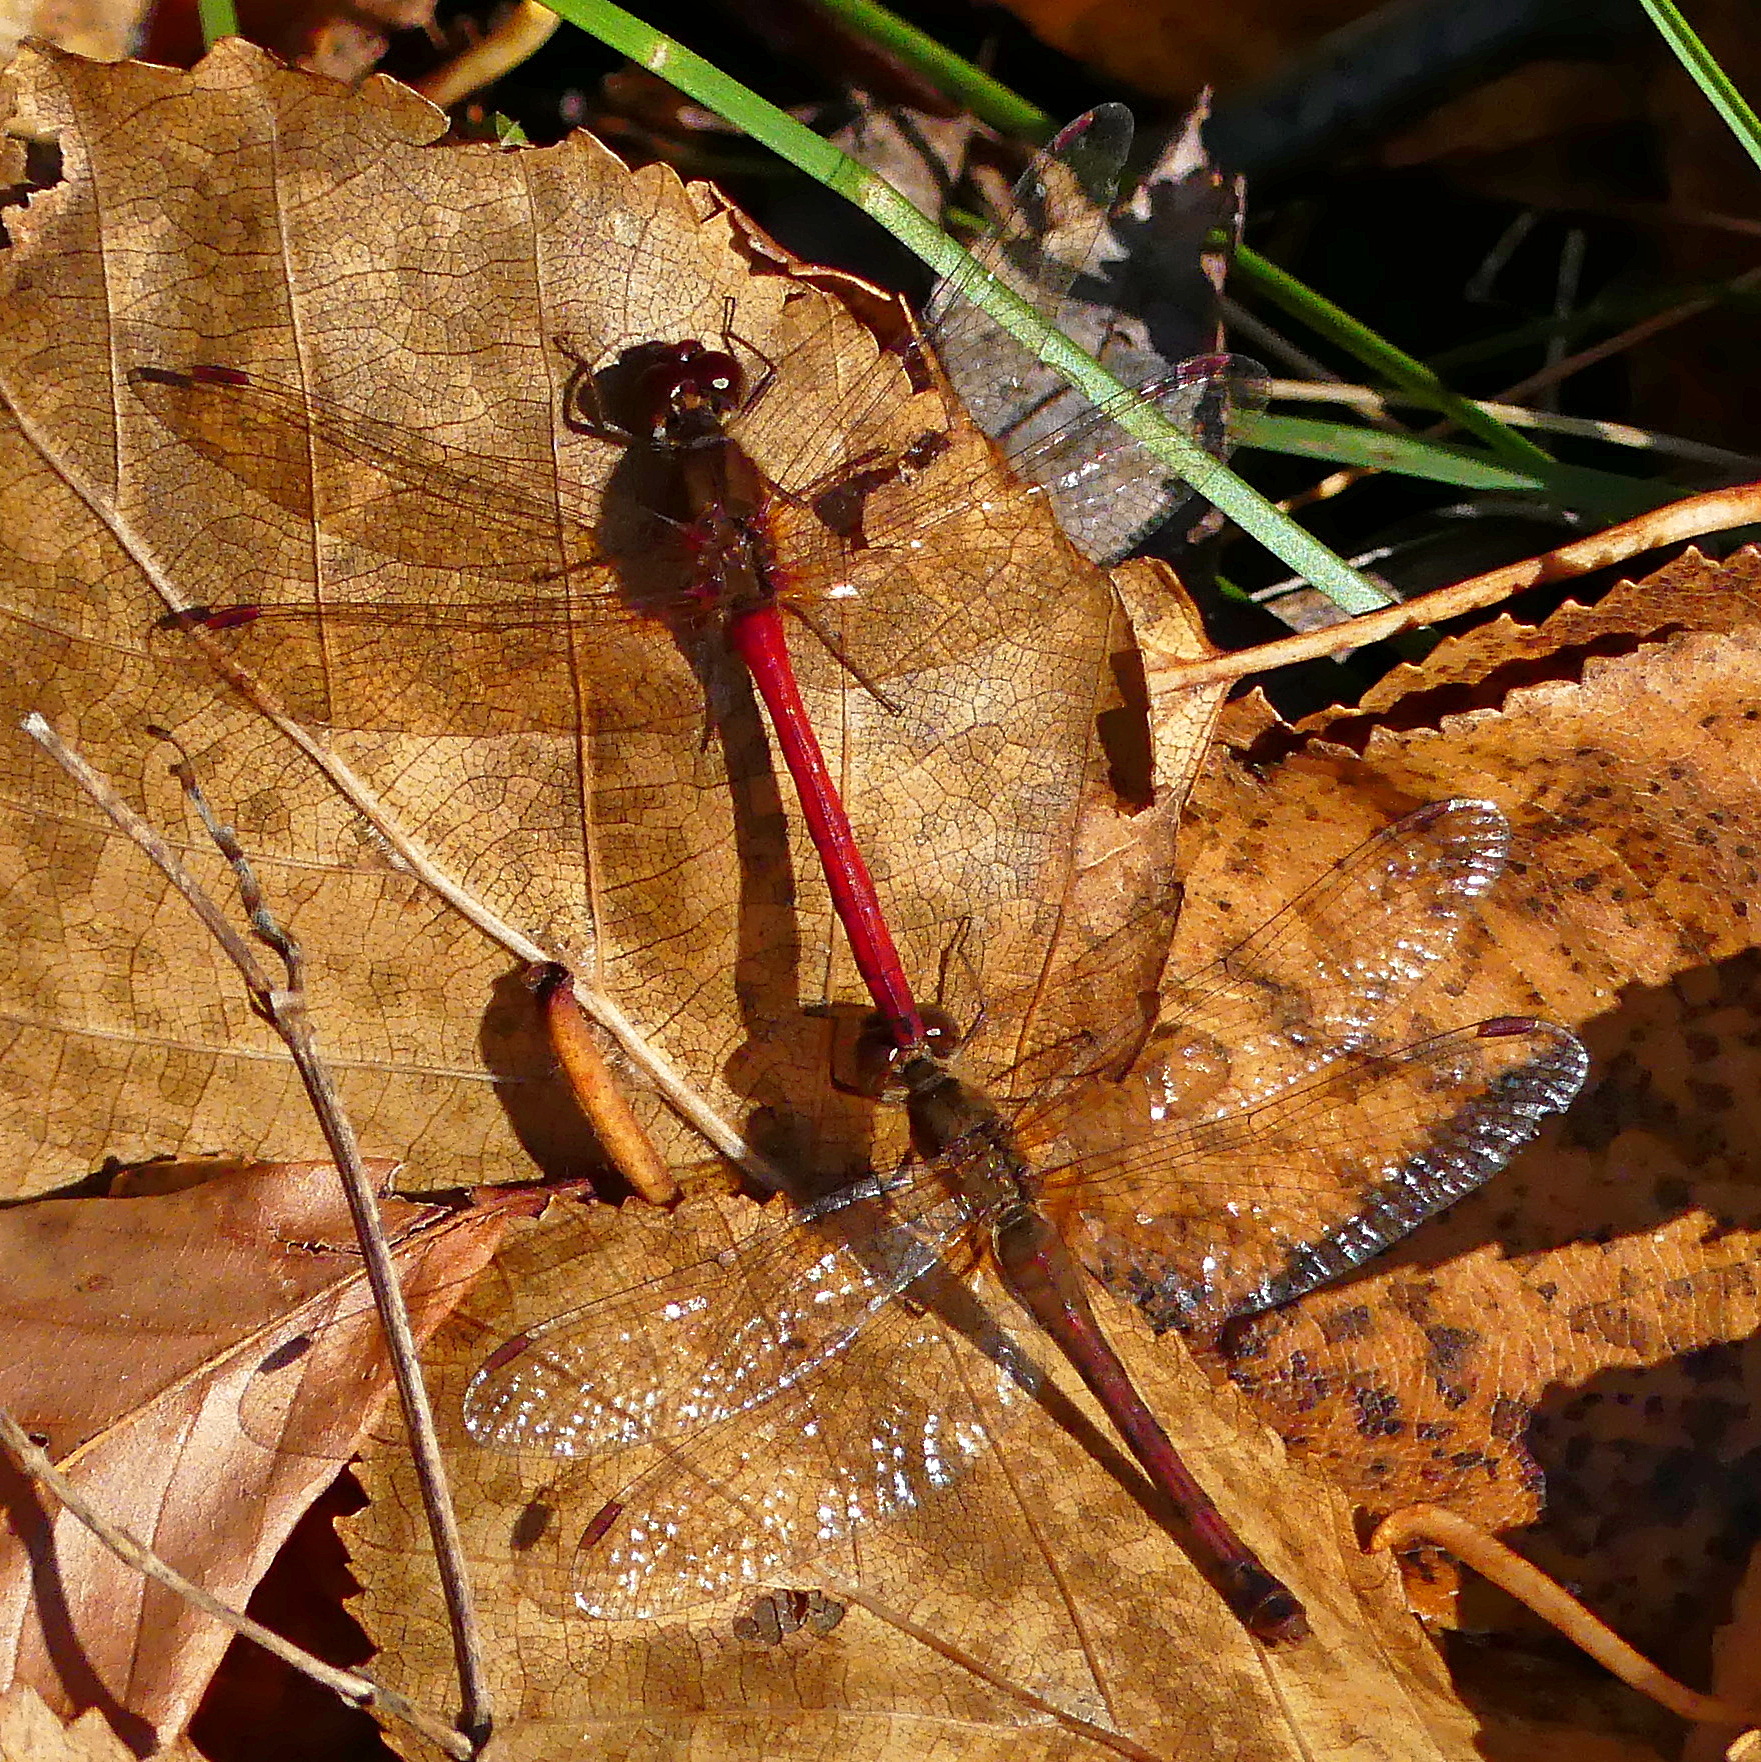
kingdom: Animalia
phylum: Arthropoda
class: Insecta
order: Odonata
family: Libellulidae
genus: Sympetrum
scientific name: Sympetrum vicinum
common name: Autumn meadowhawk
